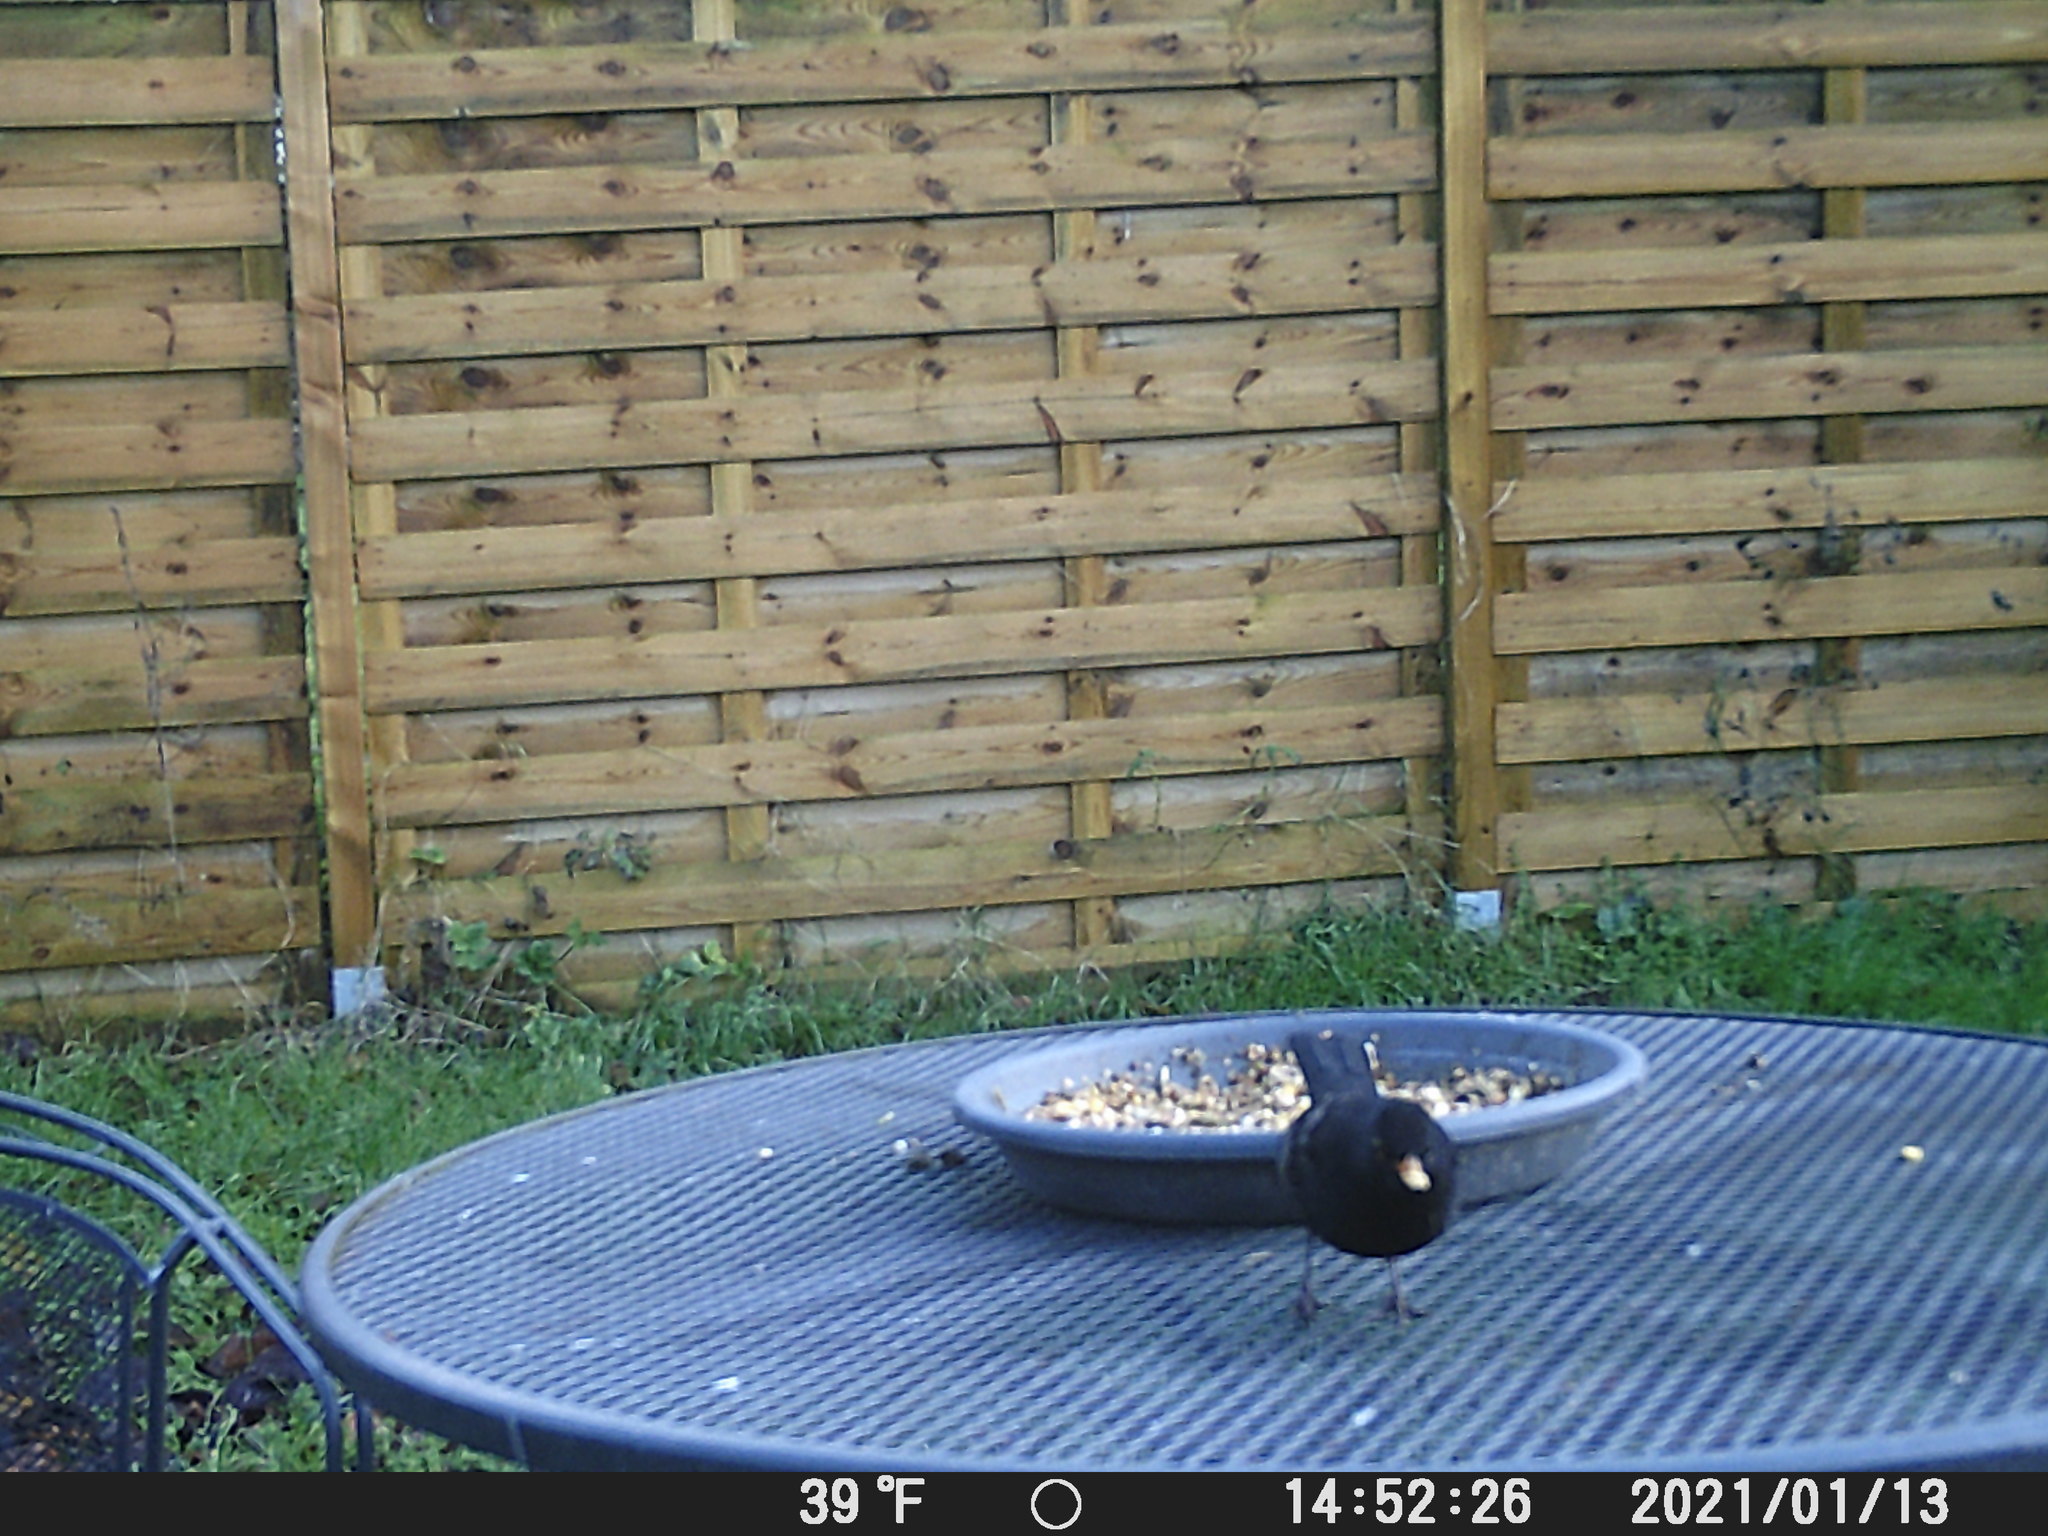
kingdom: Animalia
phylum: Chordata
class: Aves
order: Passeriformes
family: Turdidae
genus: Turdus
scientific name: Turdus merula
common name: Common blackbird
